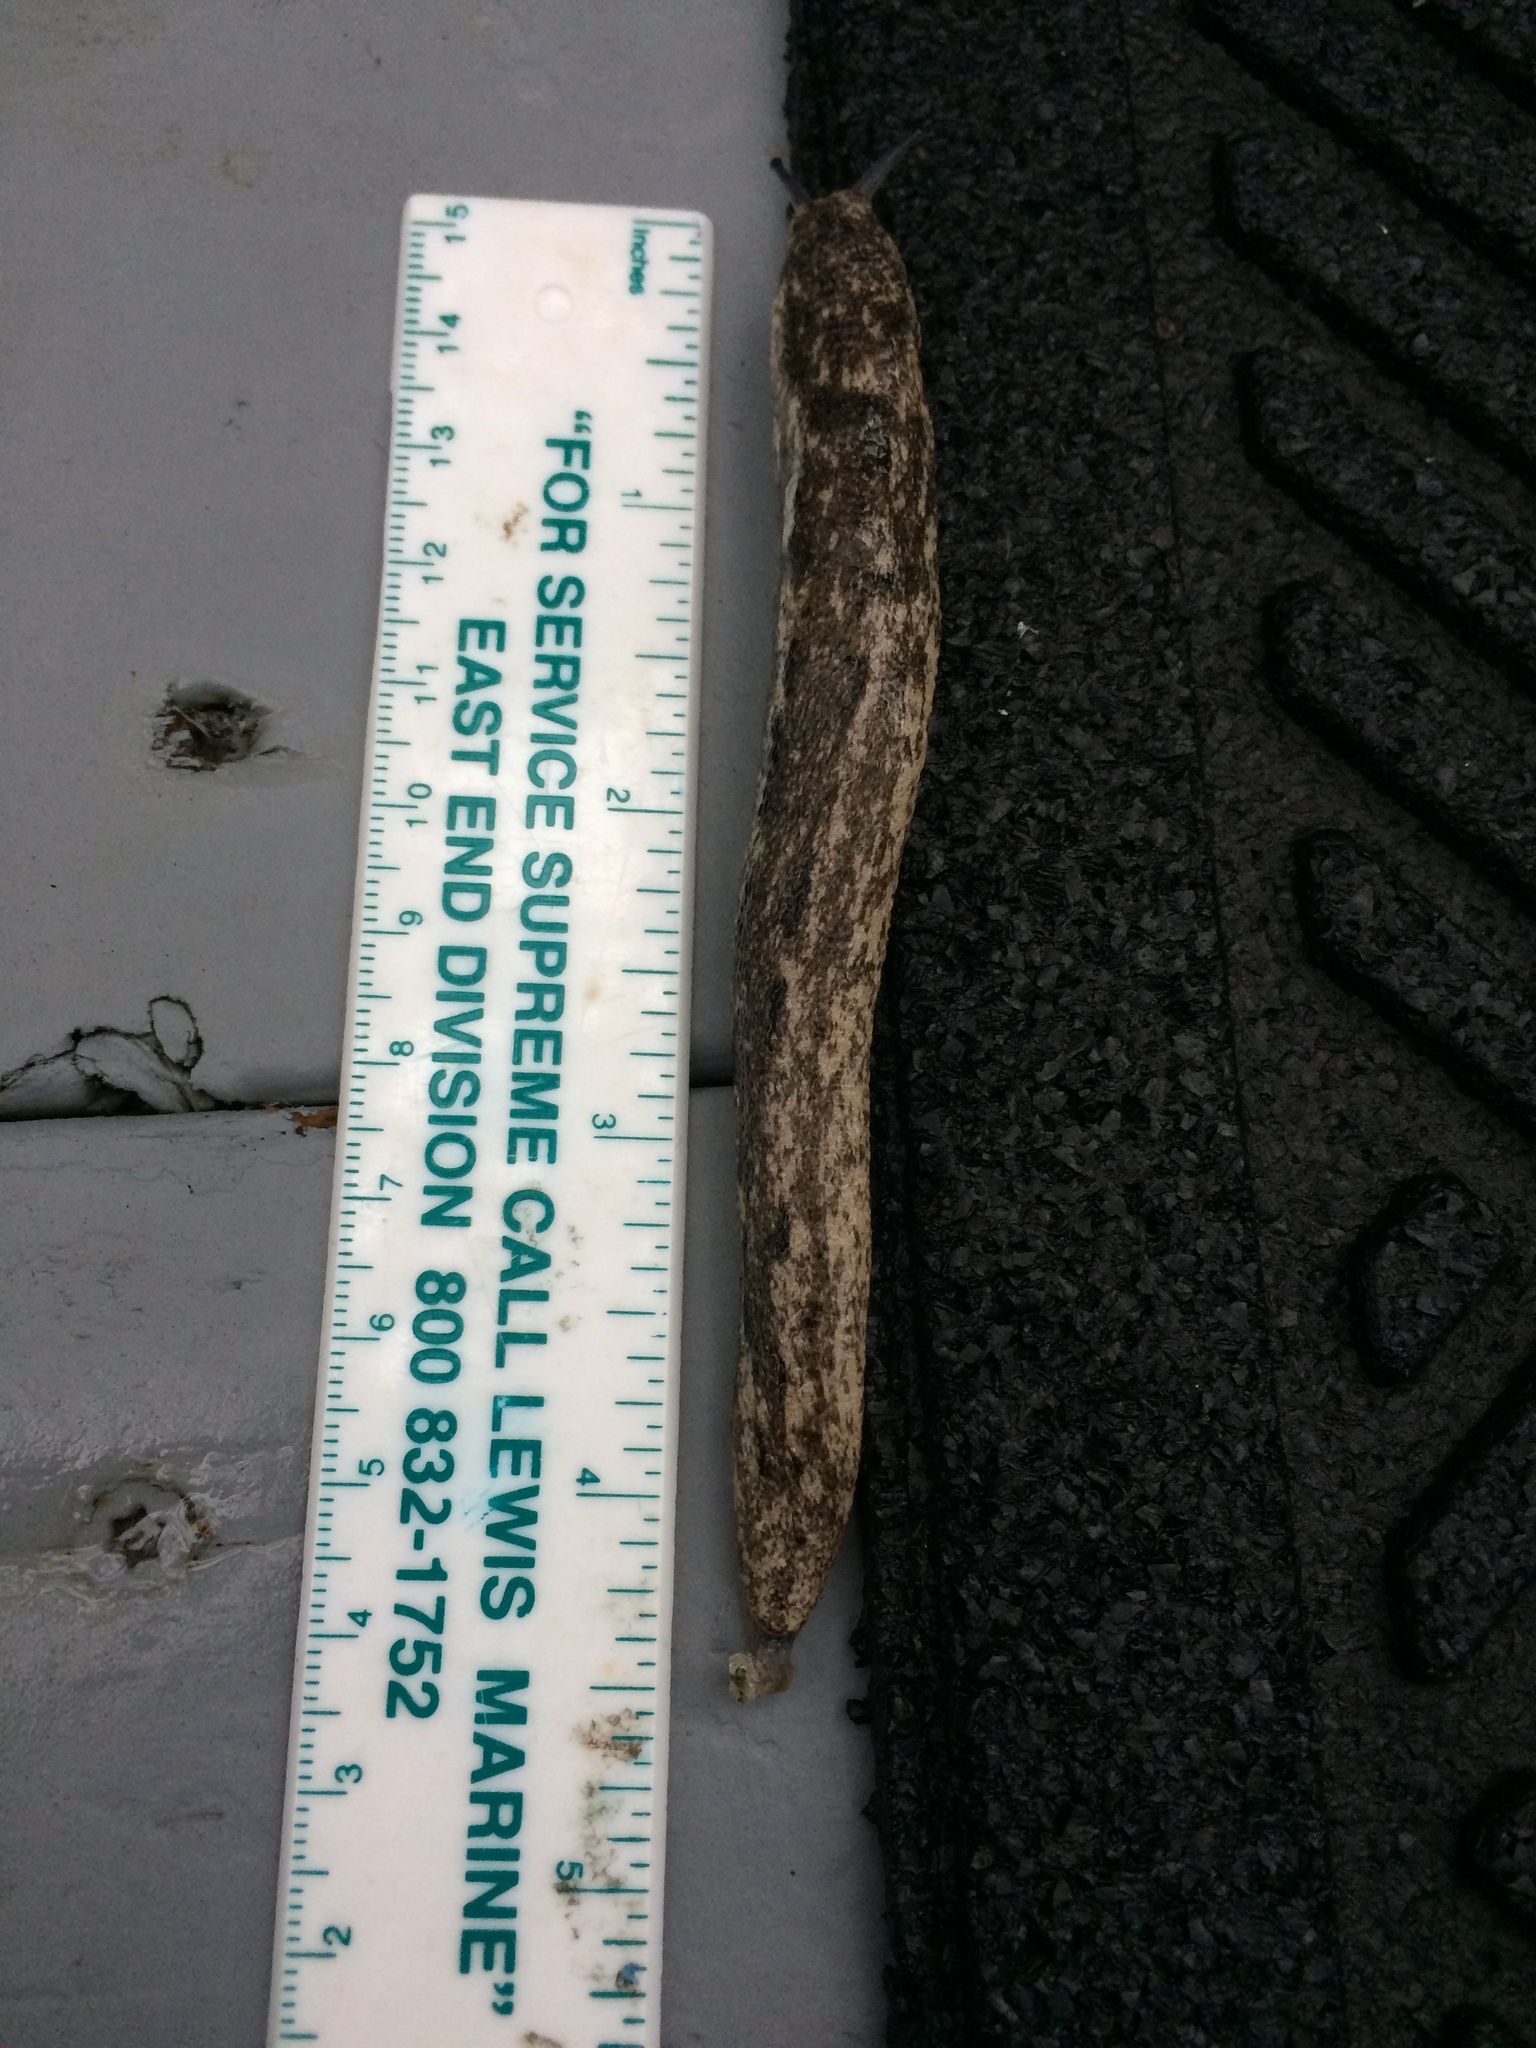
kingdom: Animalia
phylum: Mollusca
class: Gastropoda
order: Stylommatophora
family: Philomycidae
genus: Philomycus
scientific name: Philomycus carolinianus
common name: Carolina mantleslug
